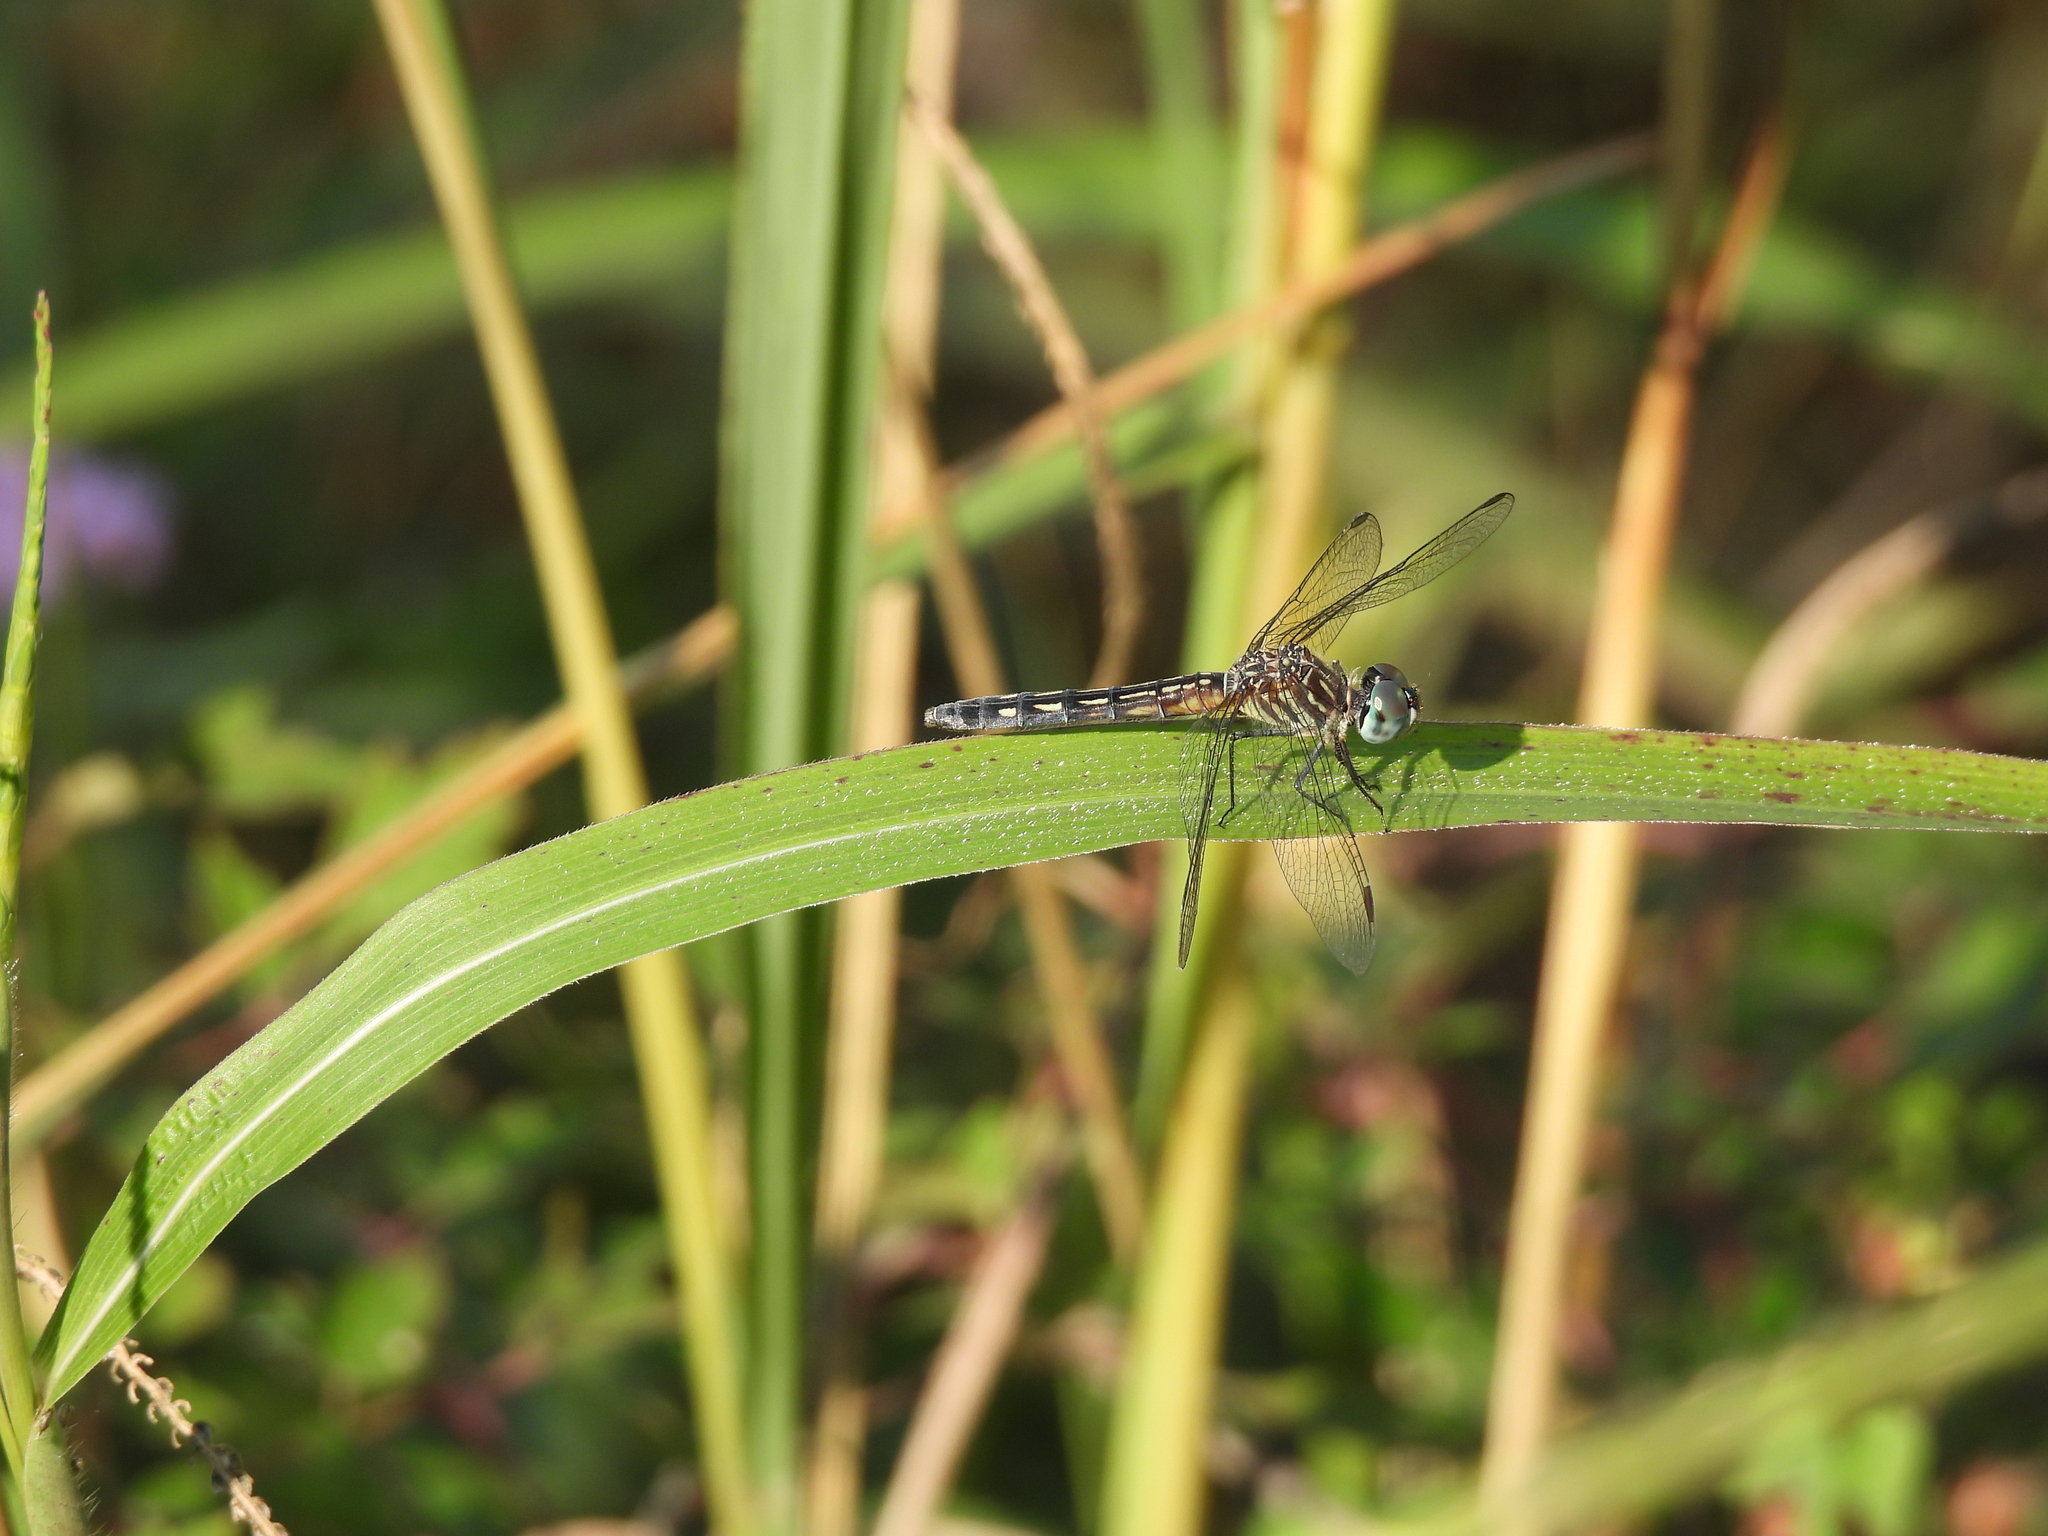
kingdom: Animalia
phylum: Arthropoda
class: Insecta
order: Odonata
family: Libellulidae
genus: Pachydiplax
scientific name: Pachydiplax longipennis
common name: Blue dasher
